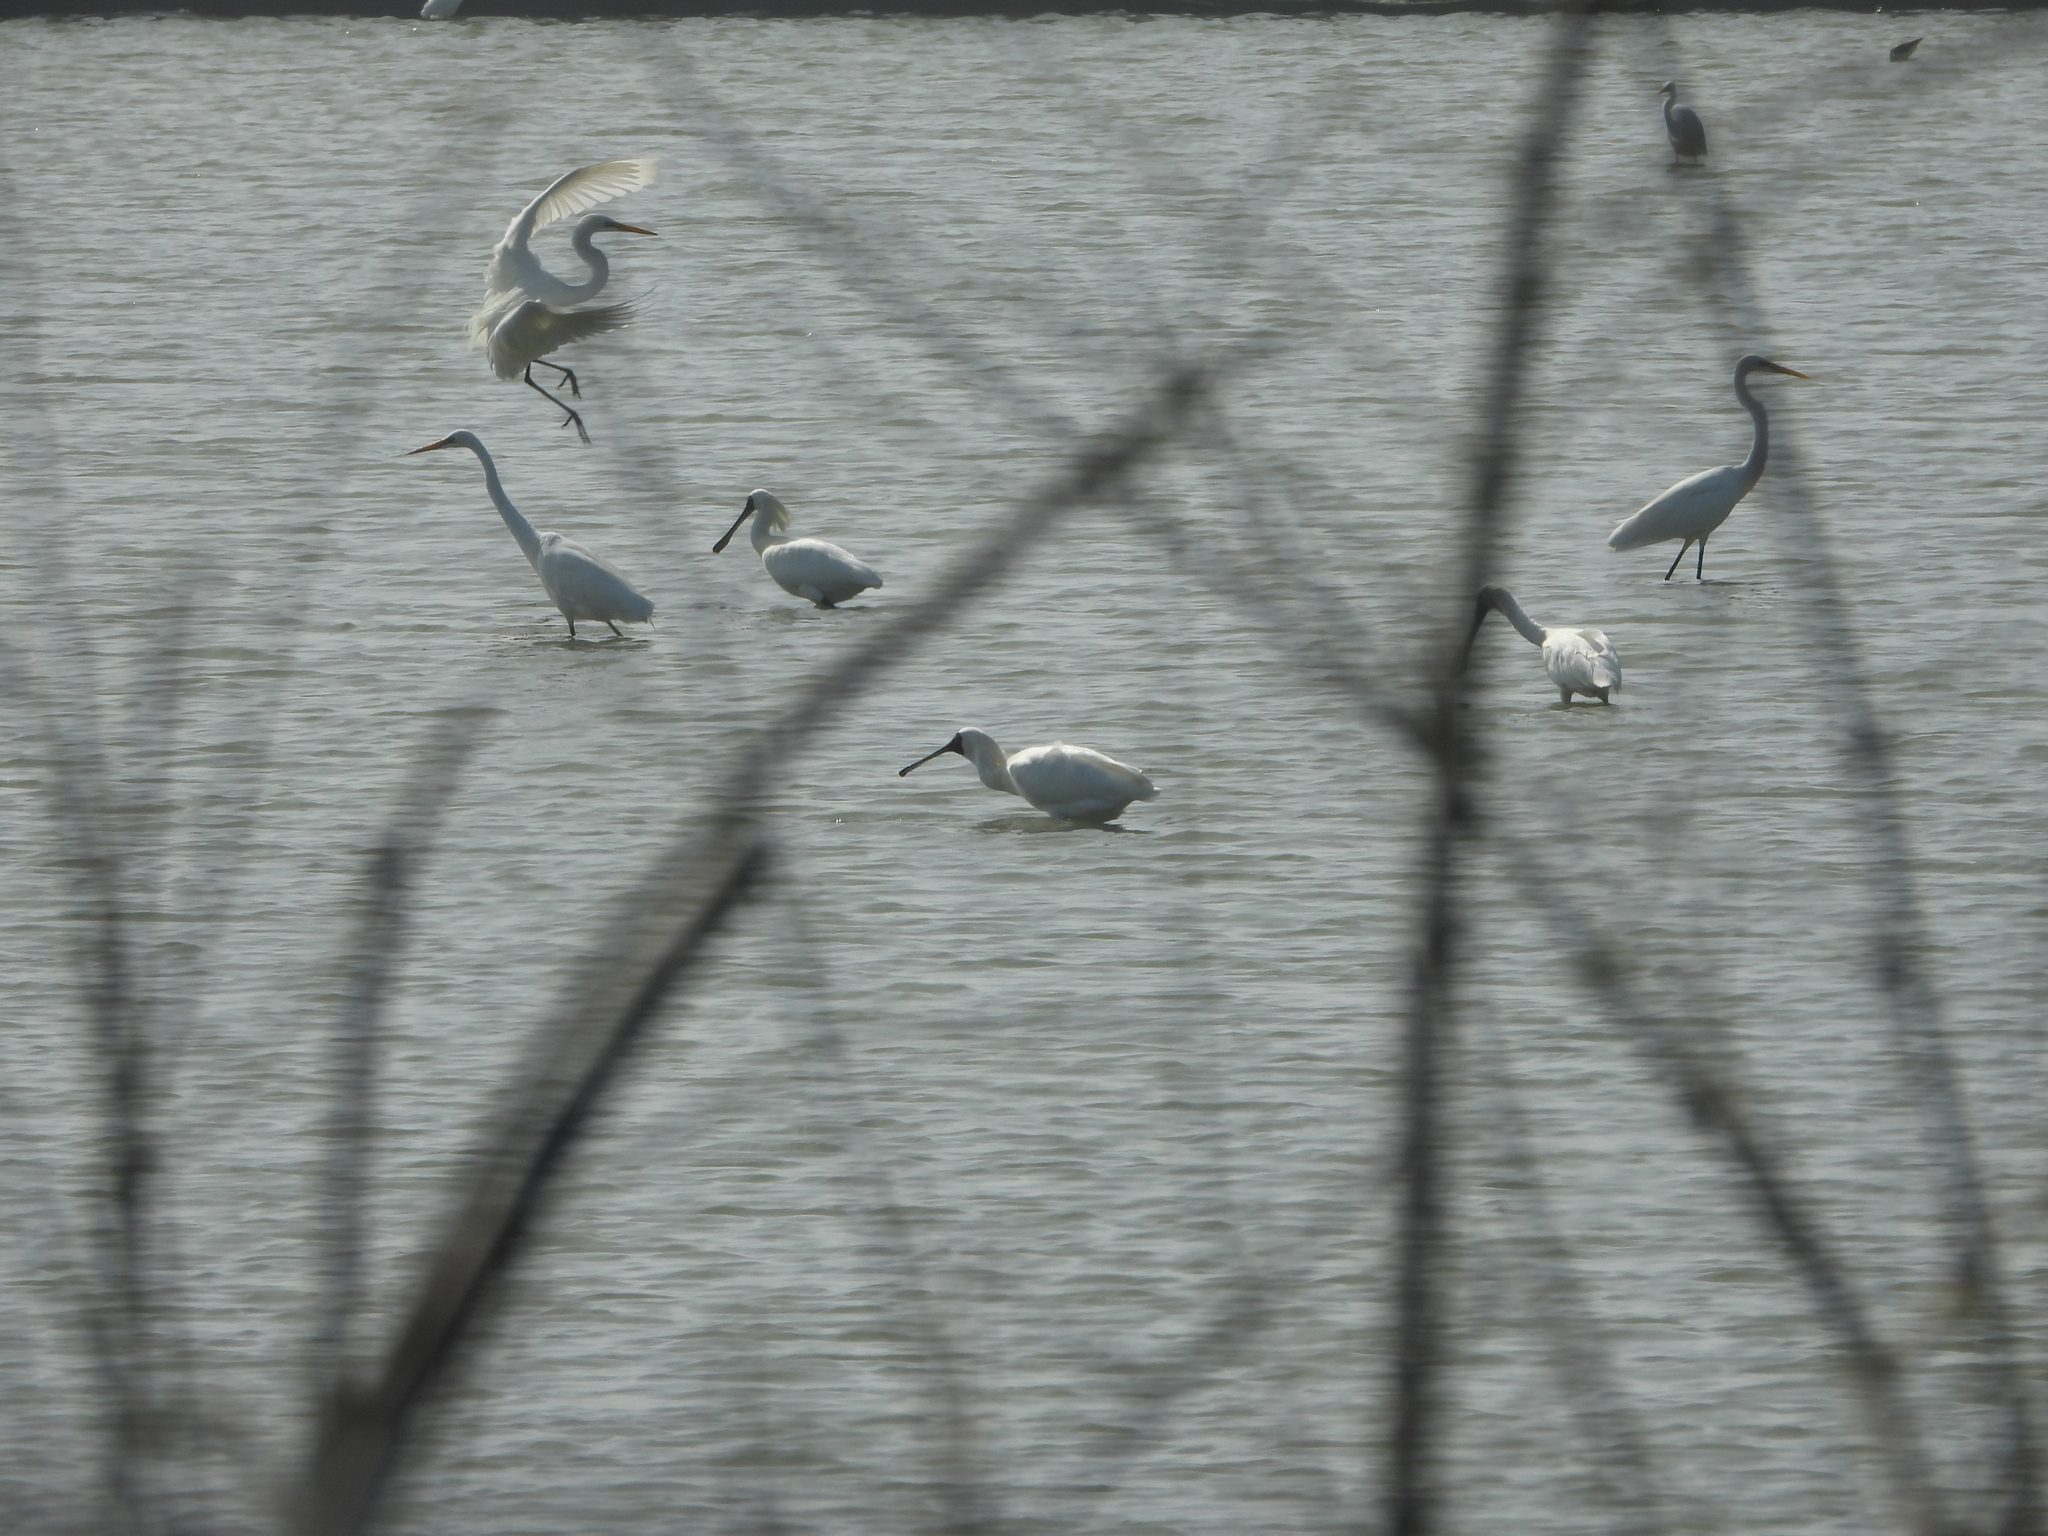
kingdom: Animalia
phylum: Chordata
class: Aves
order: Pelecaniformes
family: Threskiornithidae
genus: Platalea
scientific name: Platalea minor
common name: Black-faced spoonbill
